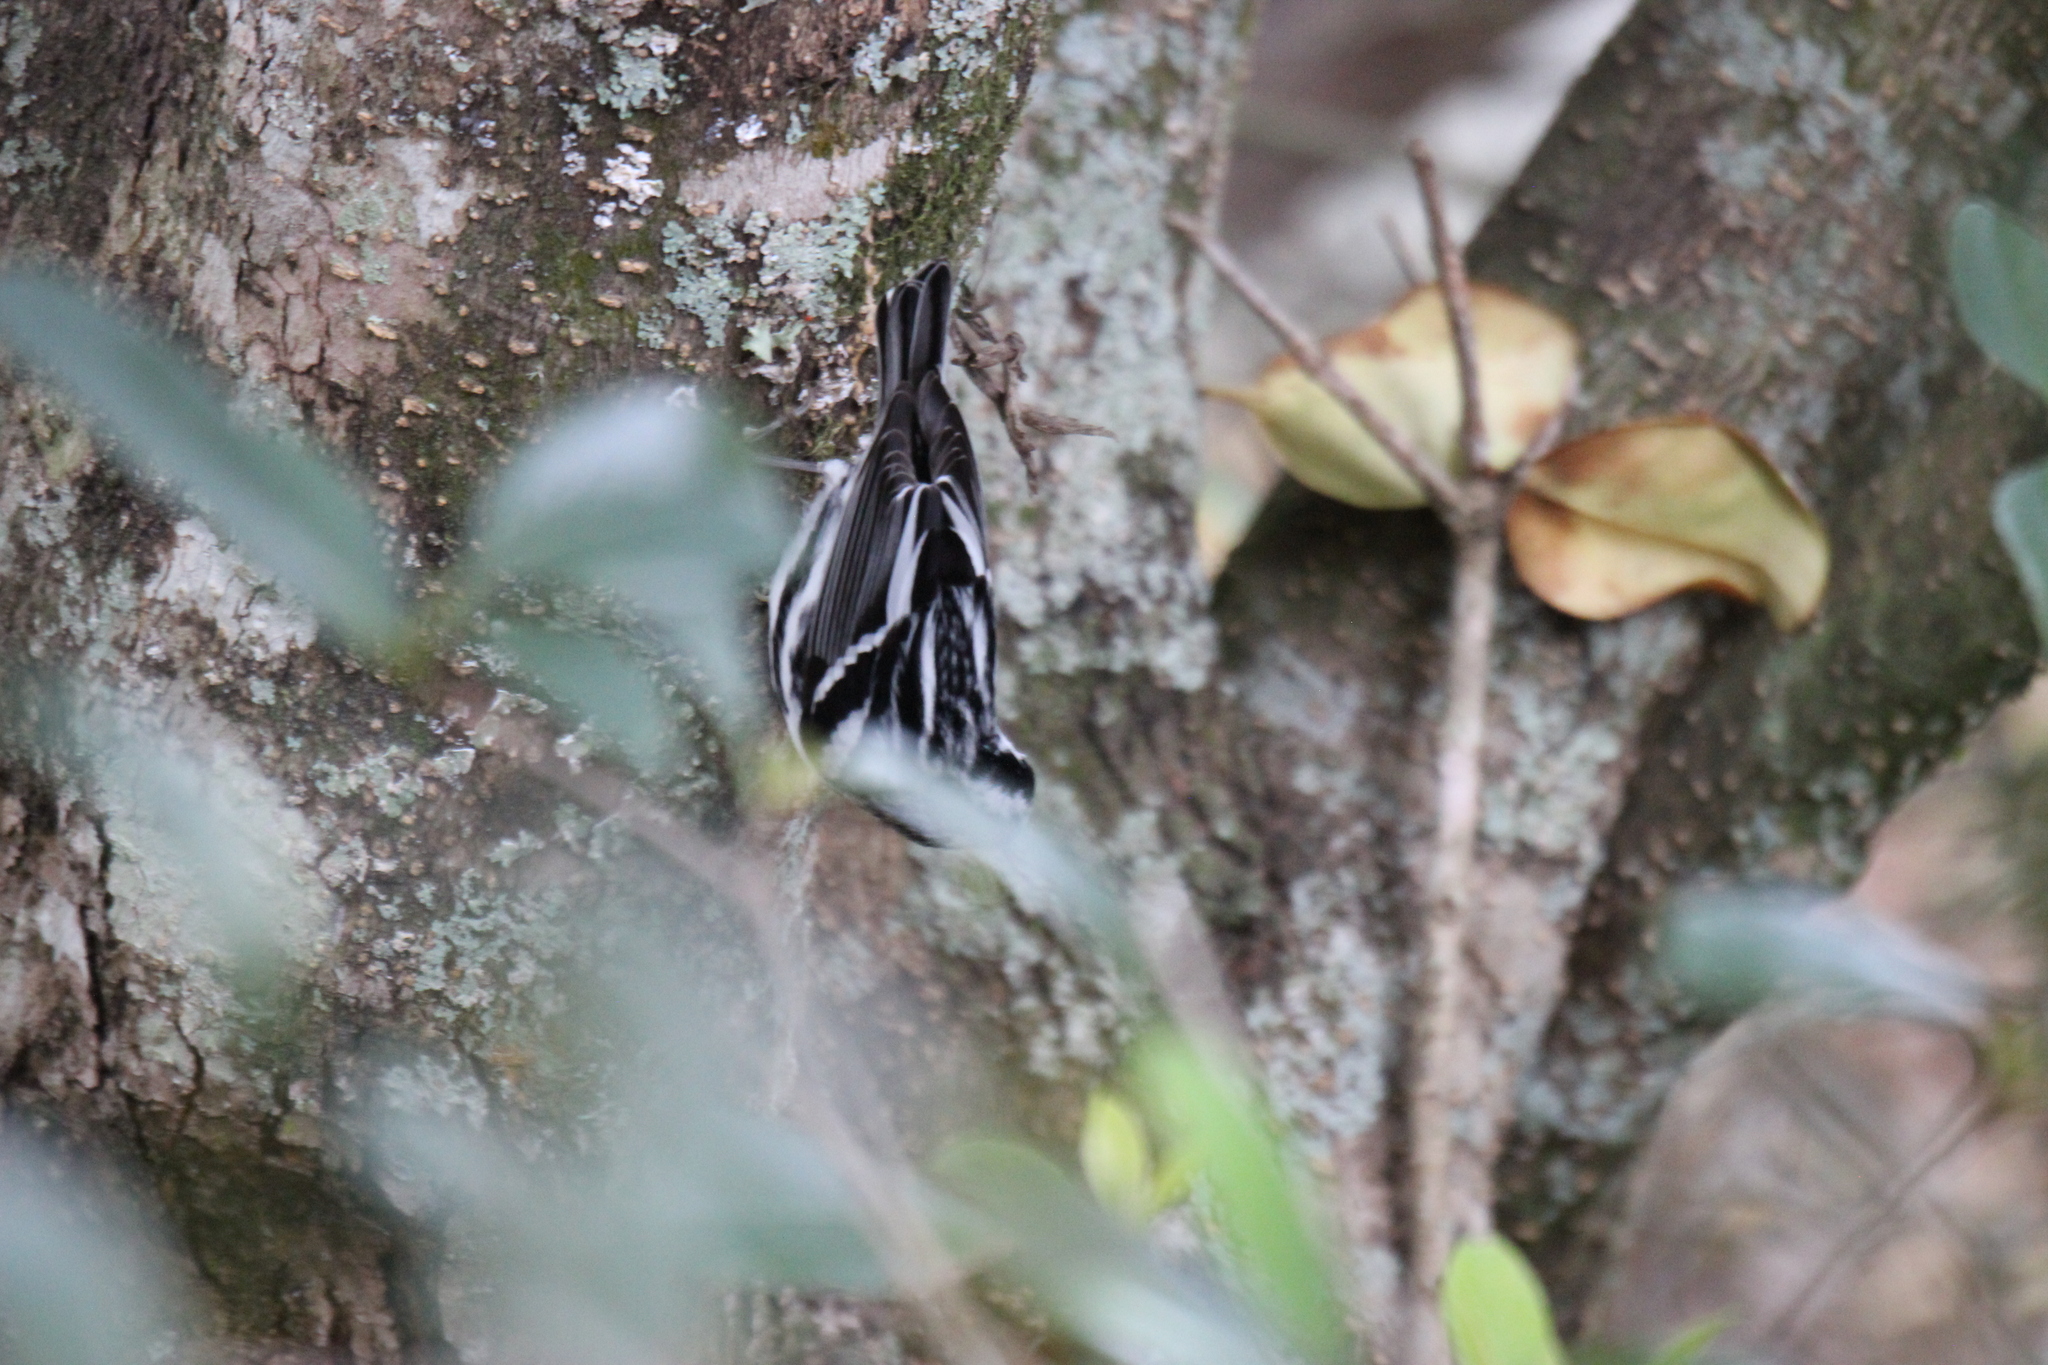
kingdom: Animalia
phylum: Chordata
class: Aves
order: Passeriformes
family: Parulidae
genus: Mniotilta
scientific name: Mniotilta varia
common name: Black-and-white warbler
